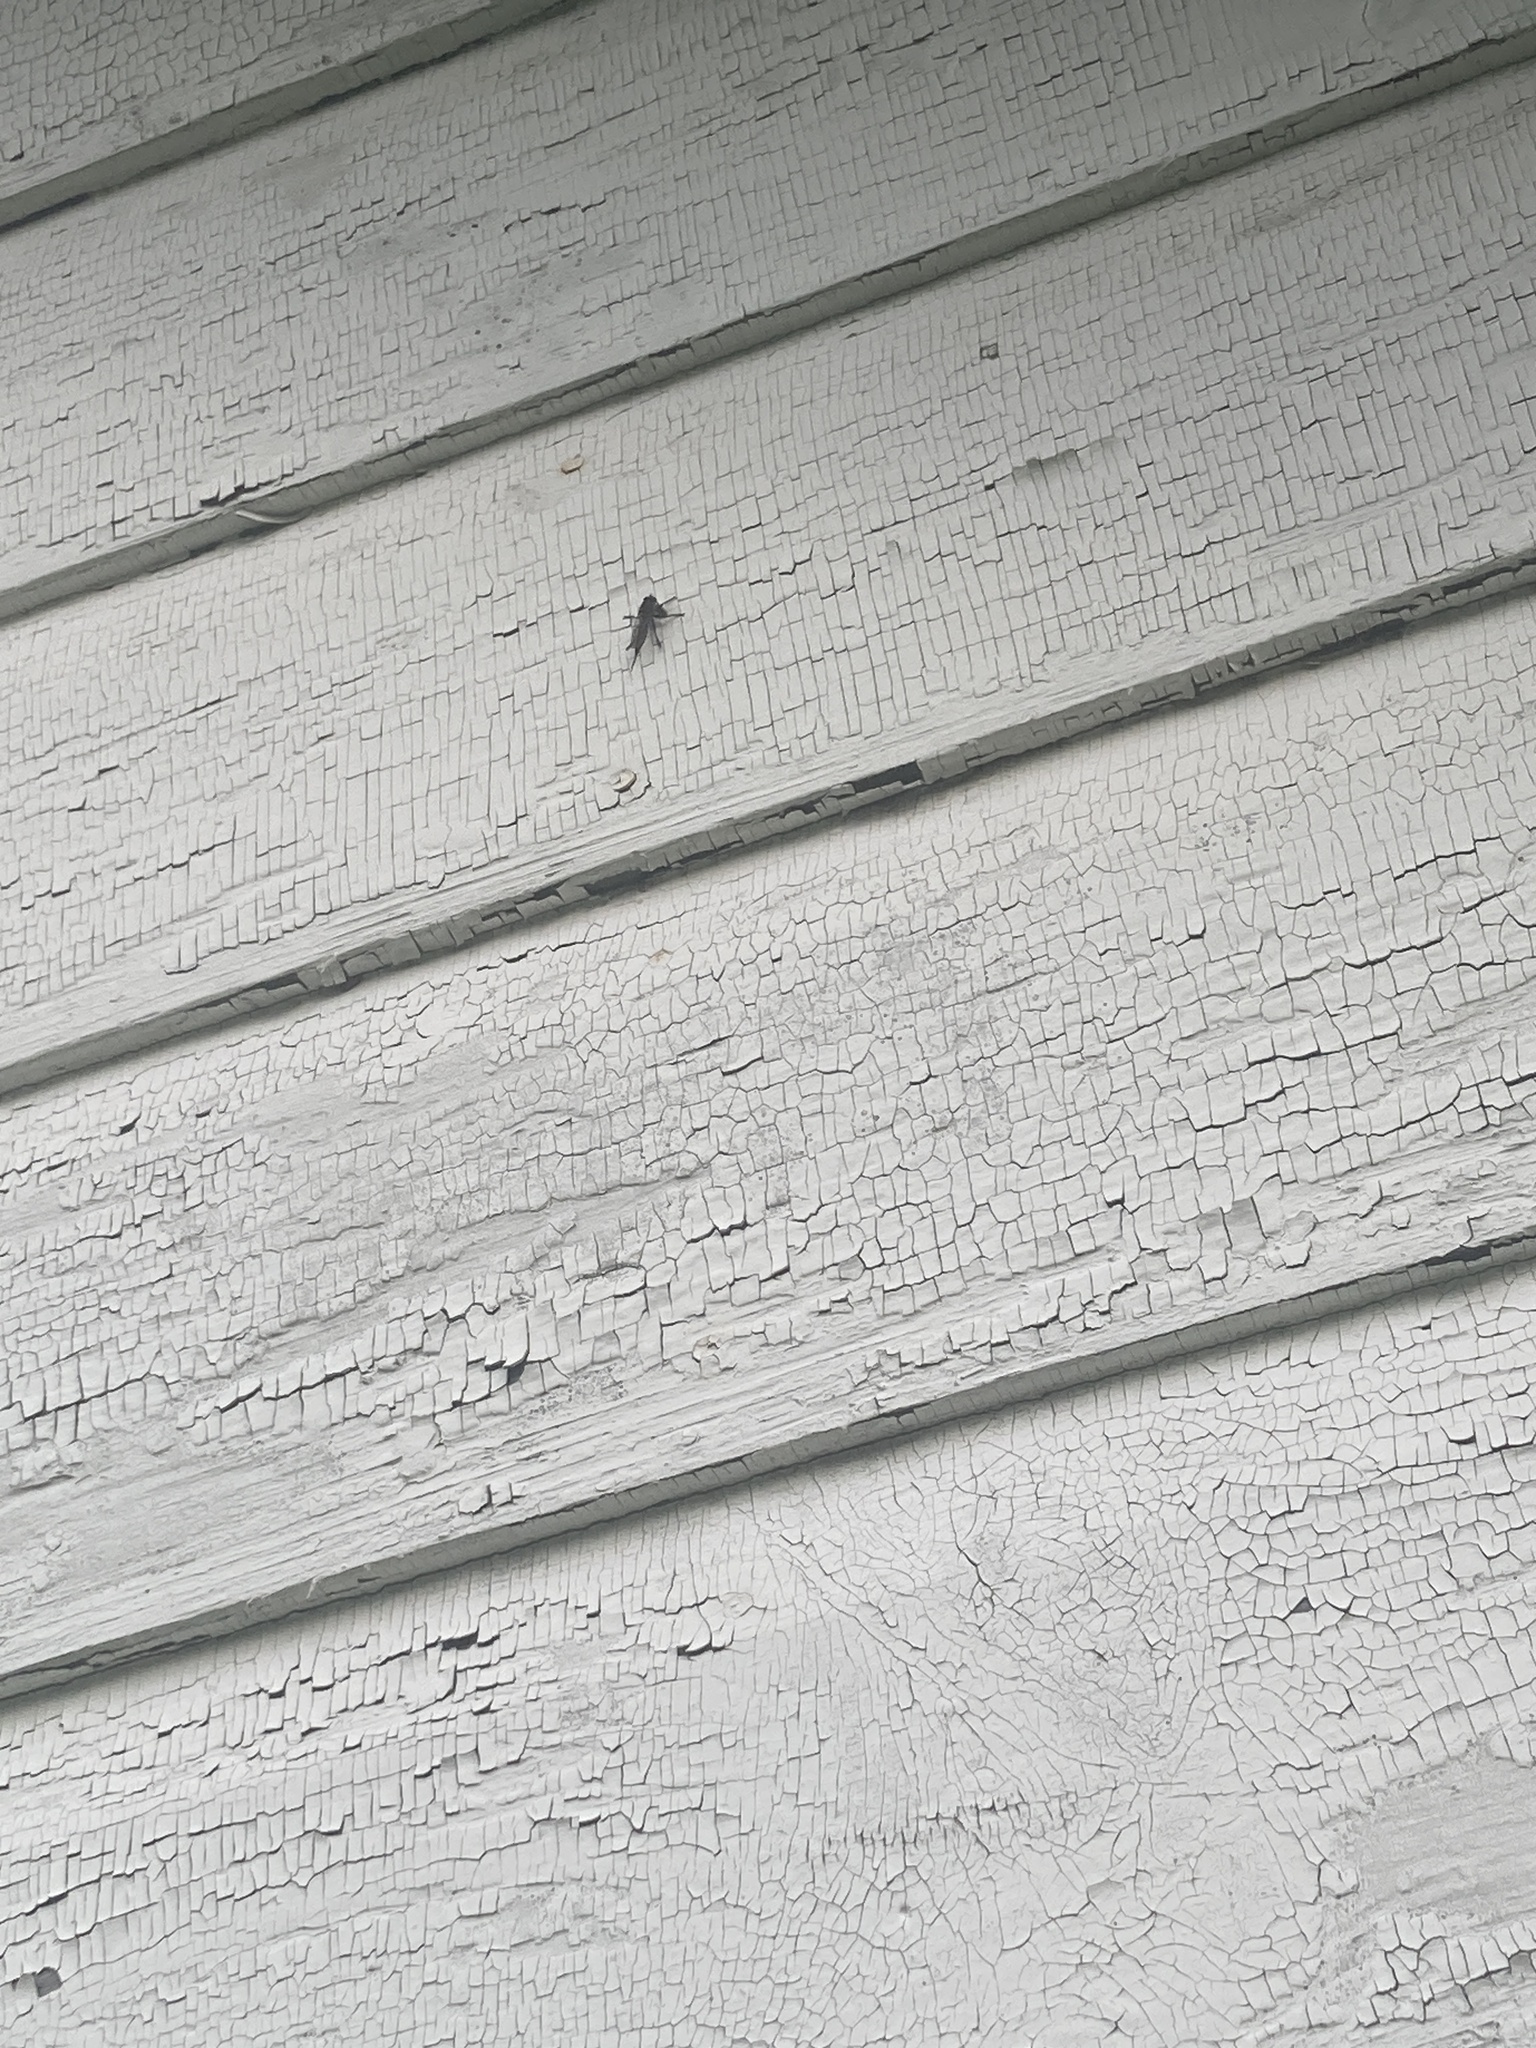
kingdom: Animalia
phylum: Arthropoda
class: Insecta
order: Diptera
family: Asilidae
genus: Efferia
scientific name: Efferia aestuans
